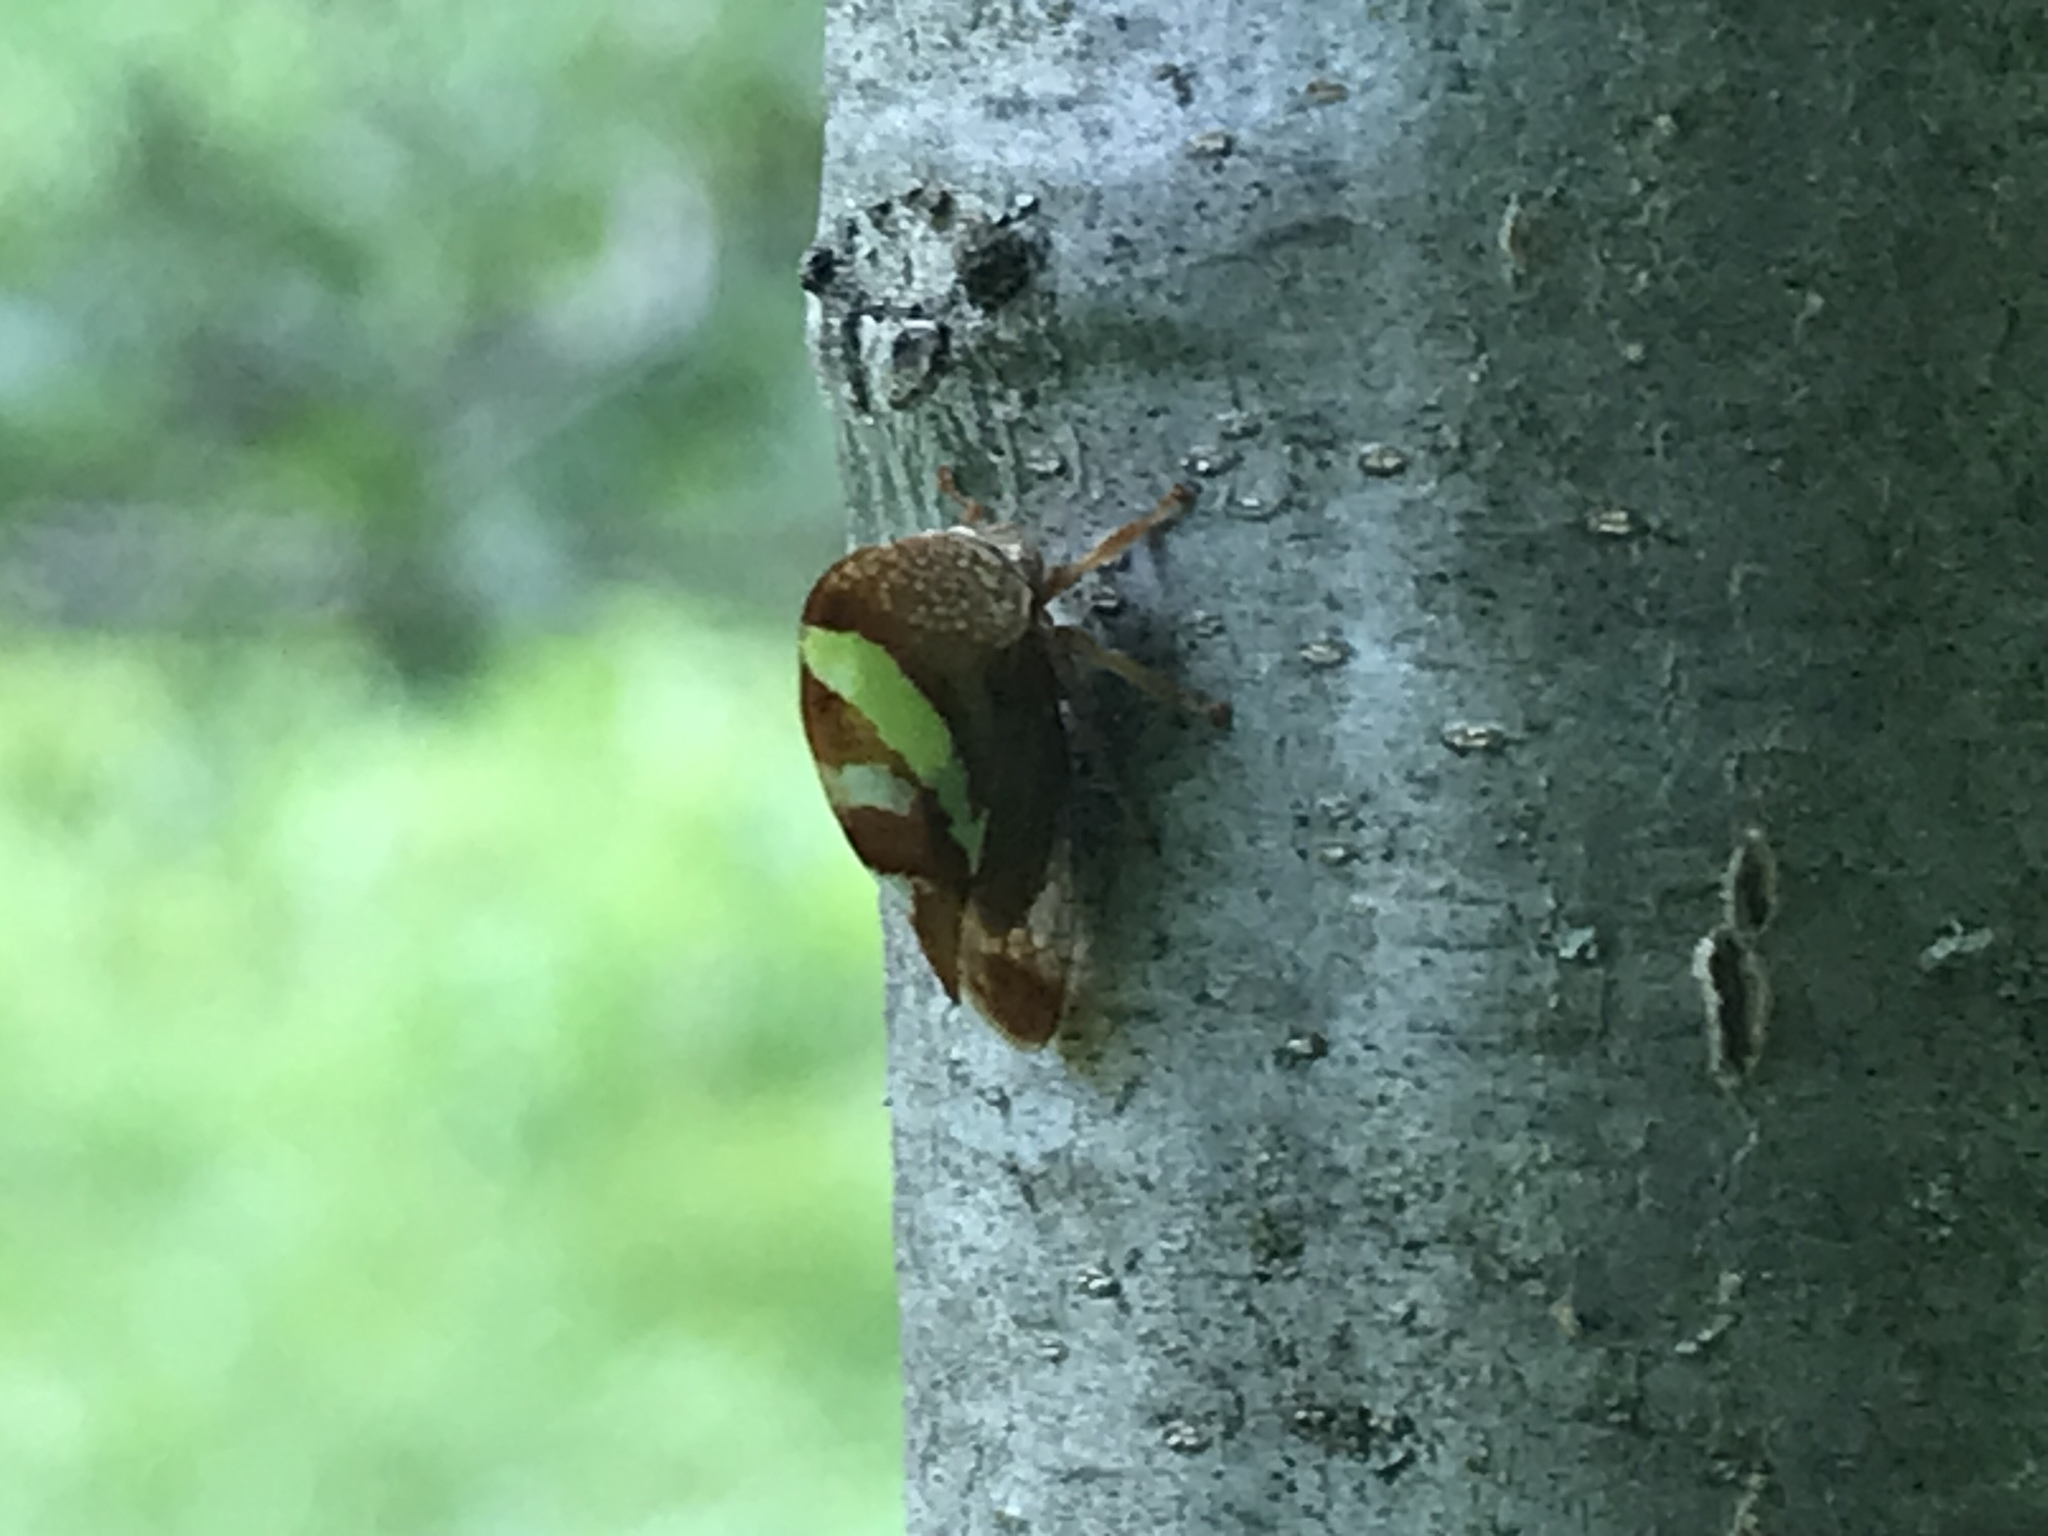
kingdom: Animalia
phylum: Arthropoda
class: Insecta
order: Hemiptera
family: Membracidae
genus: Smilia
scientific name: Smilia camelus
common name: Camel treehopper
